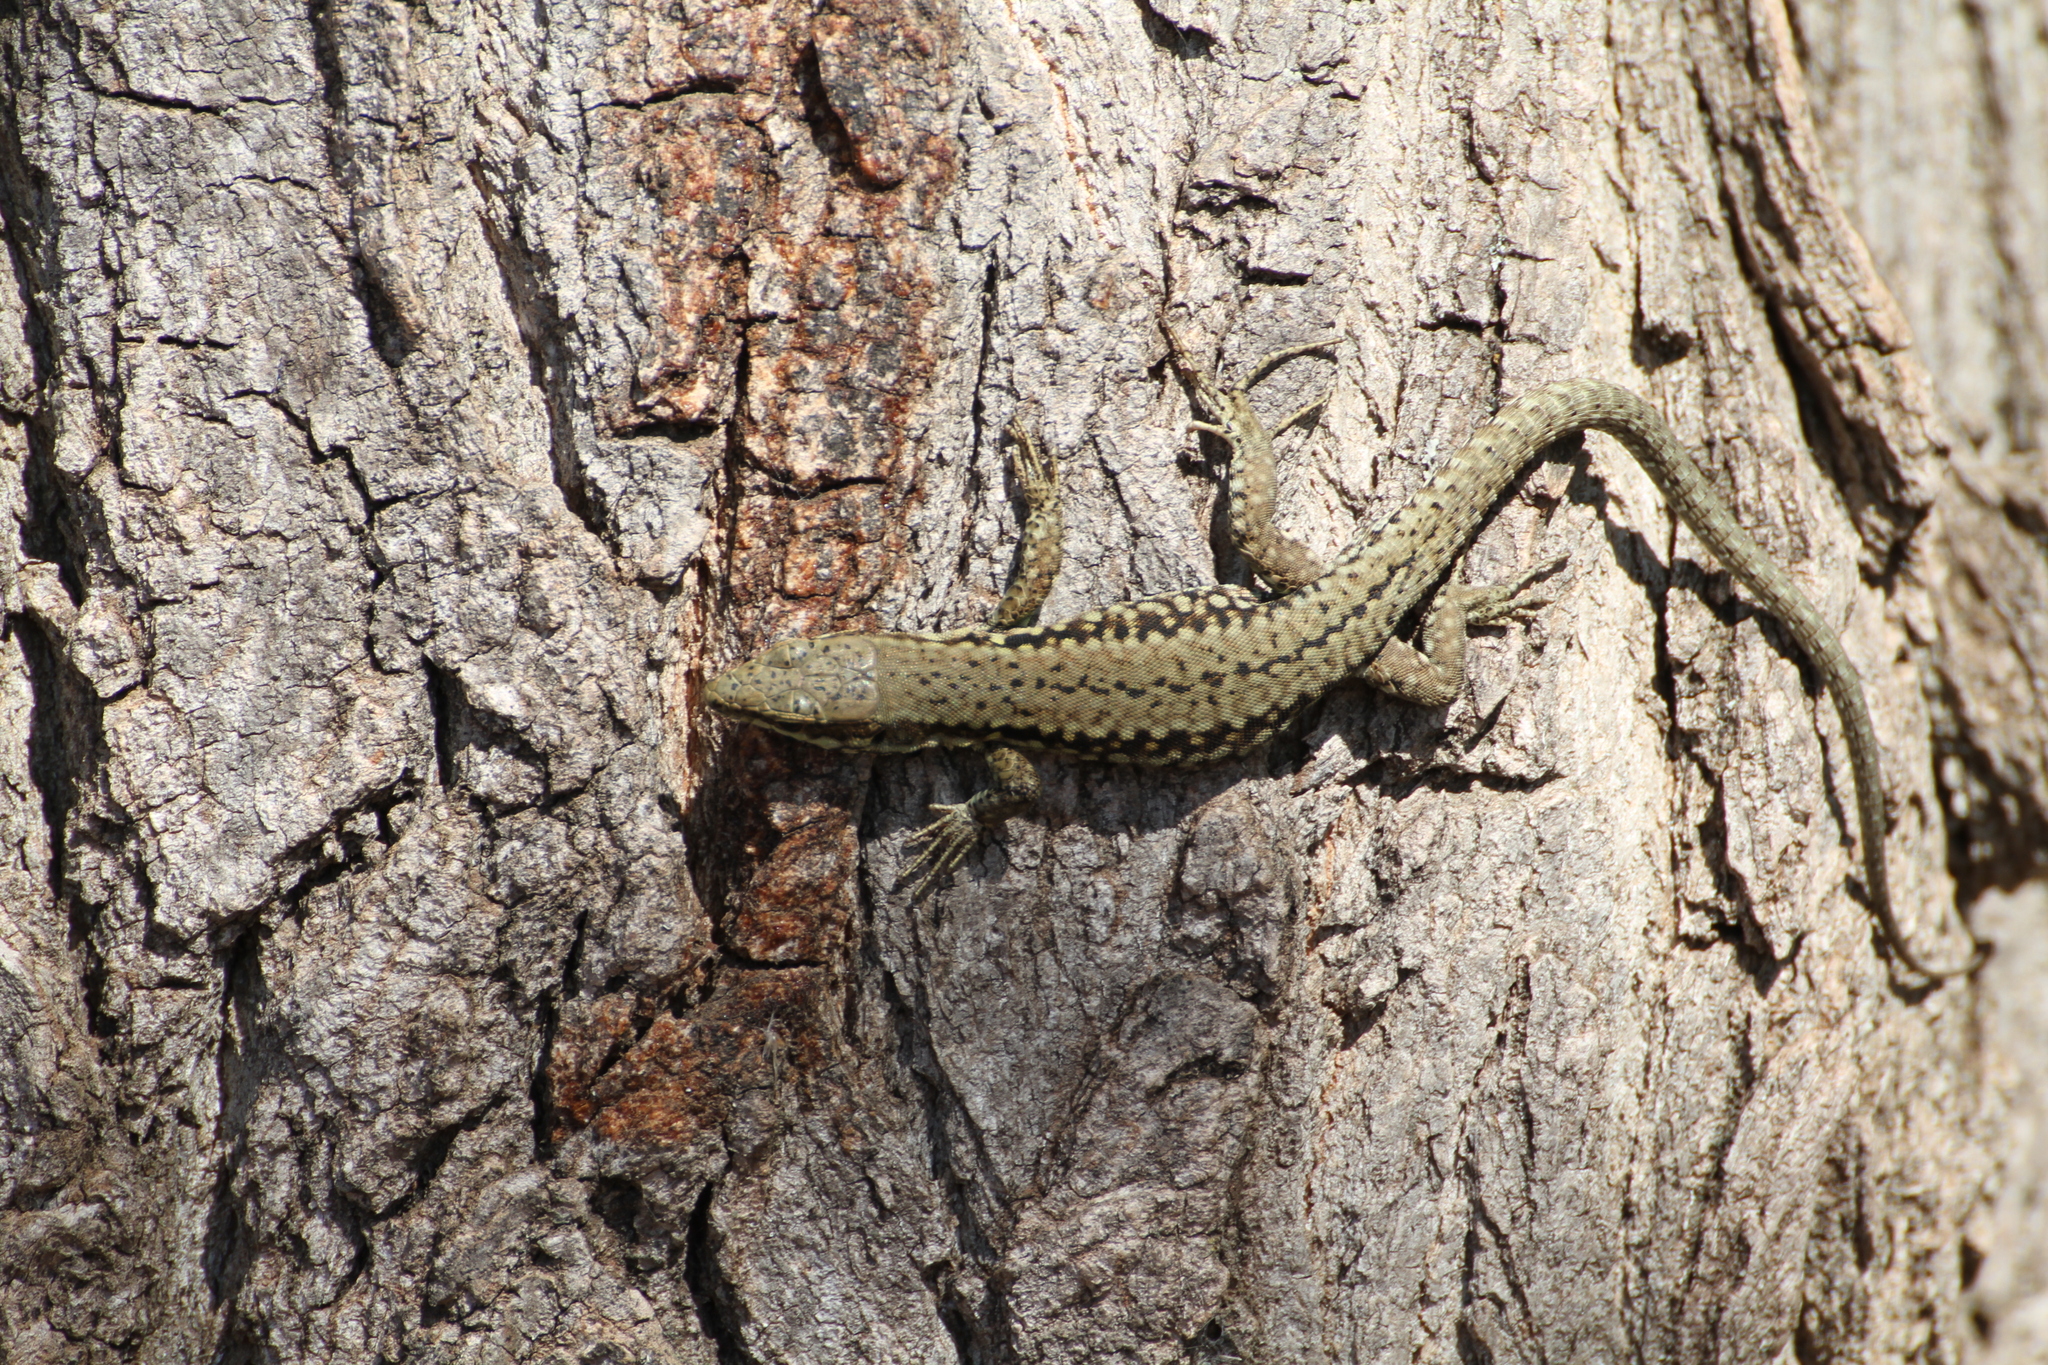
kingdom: Animalia
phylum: Chordata
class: Squamata
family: Lacertidae
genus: Podarcis
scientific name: Podarcis muralis
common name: Common wall lizard
